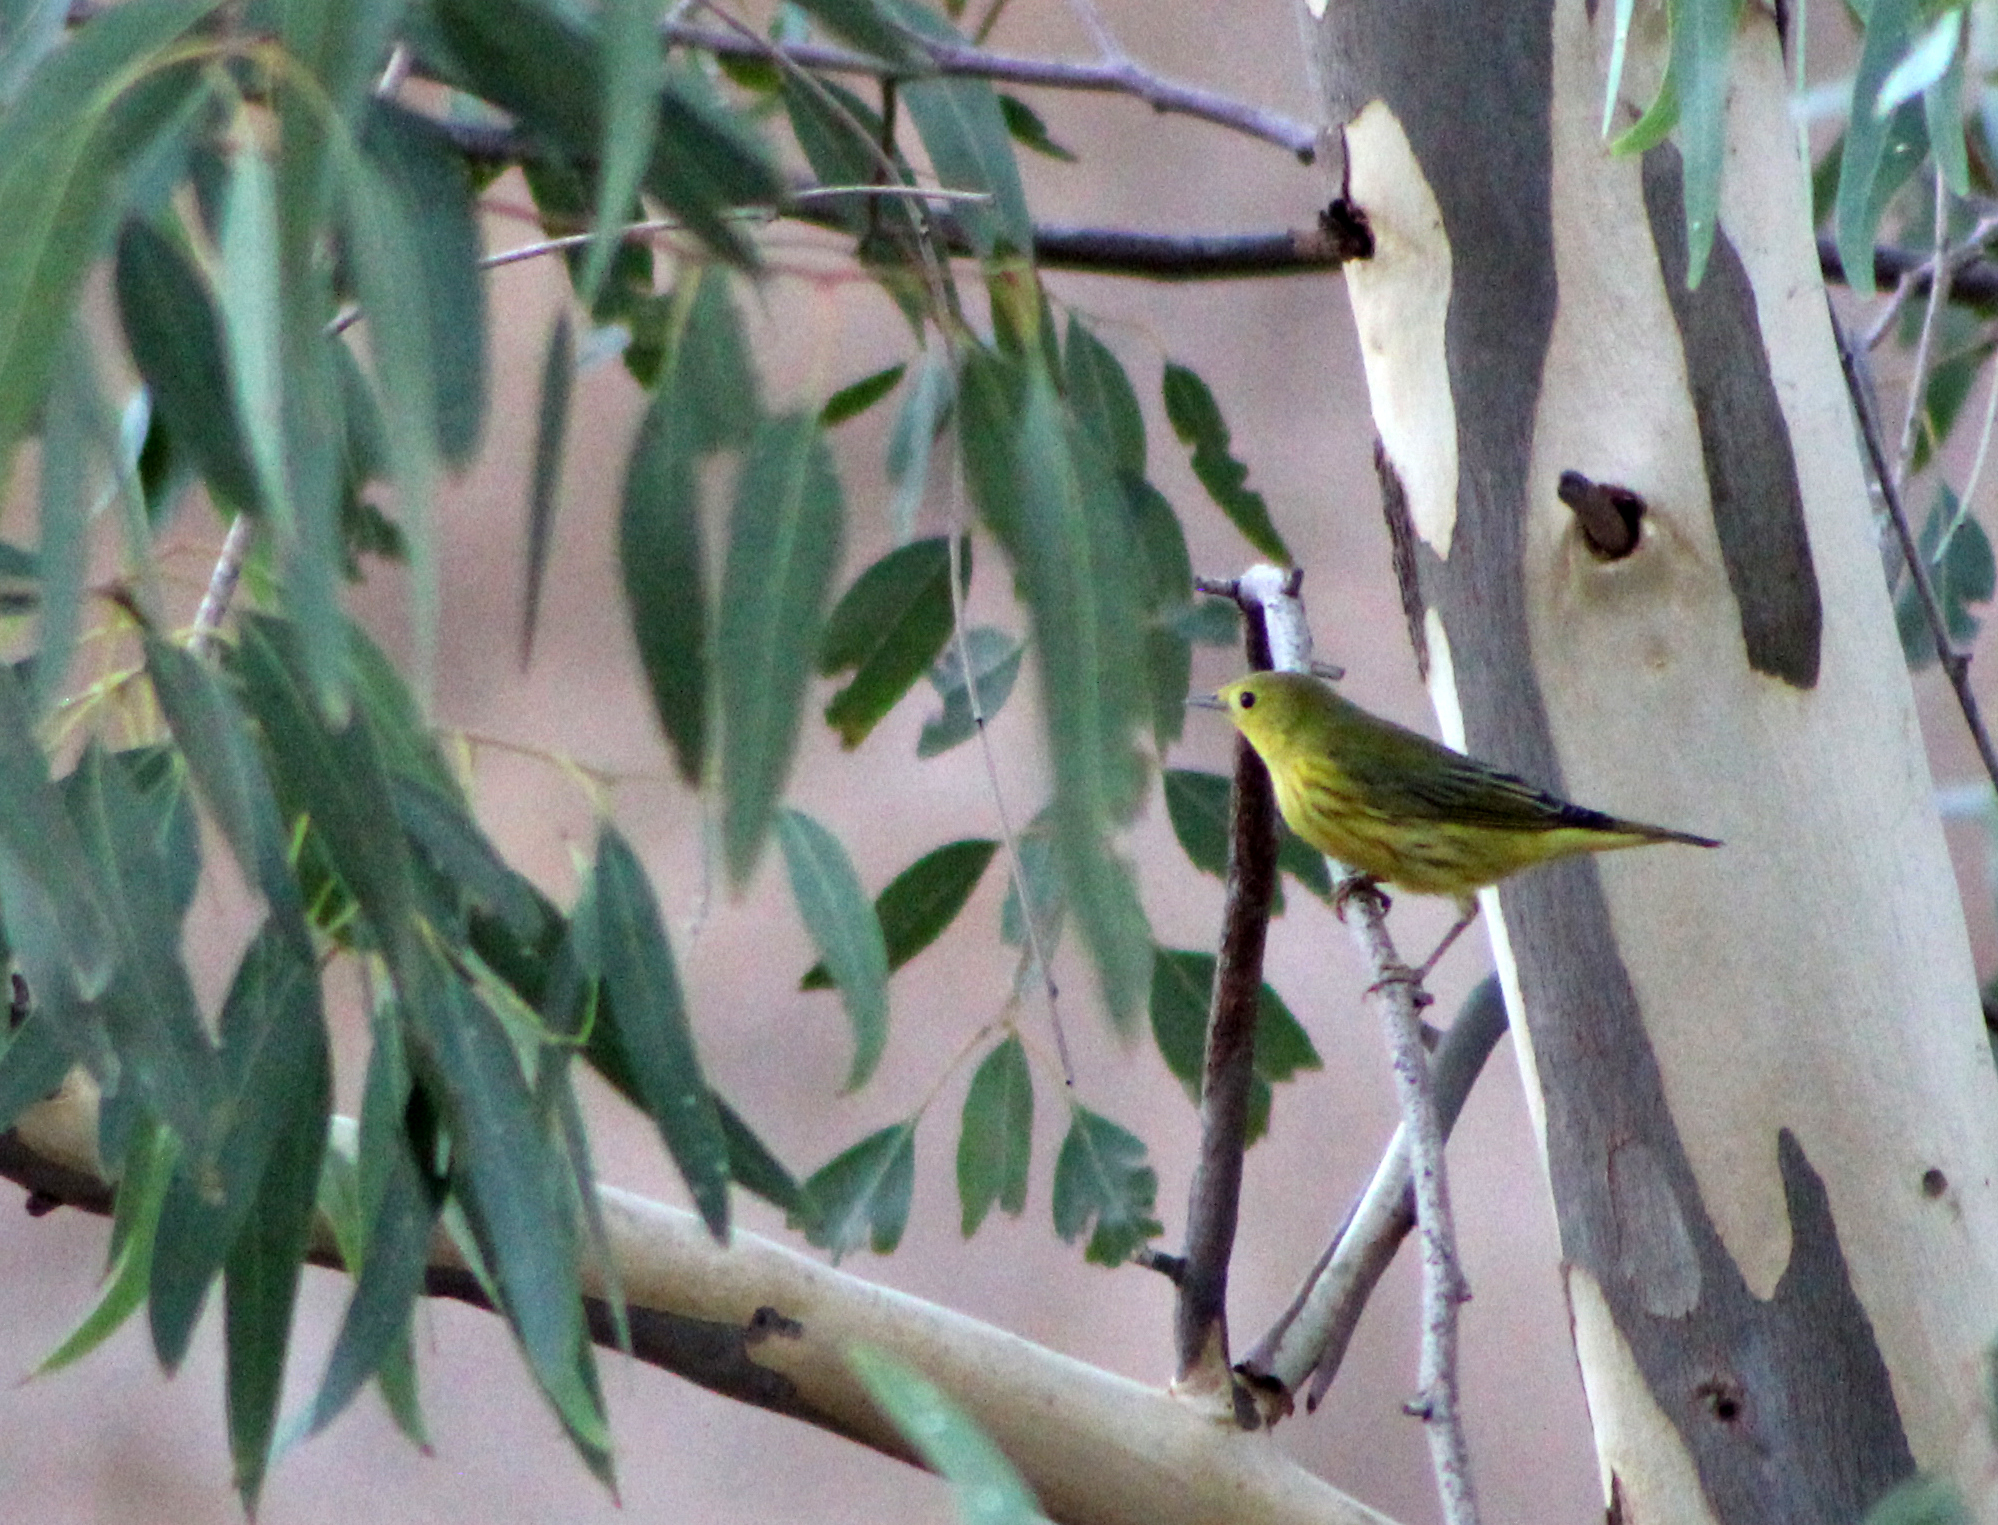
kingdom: Animalia
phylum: Chordata
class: Aves
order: Passeriformes
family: Parulidae
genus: Setophaga
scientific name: Setophaga petechia
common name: Yellow warbler
